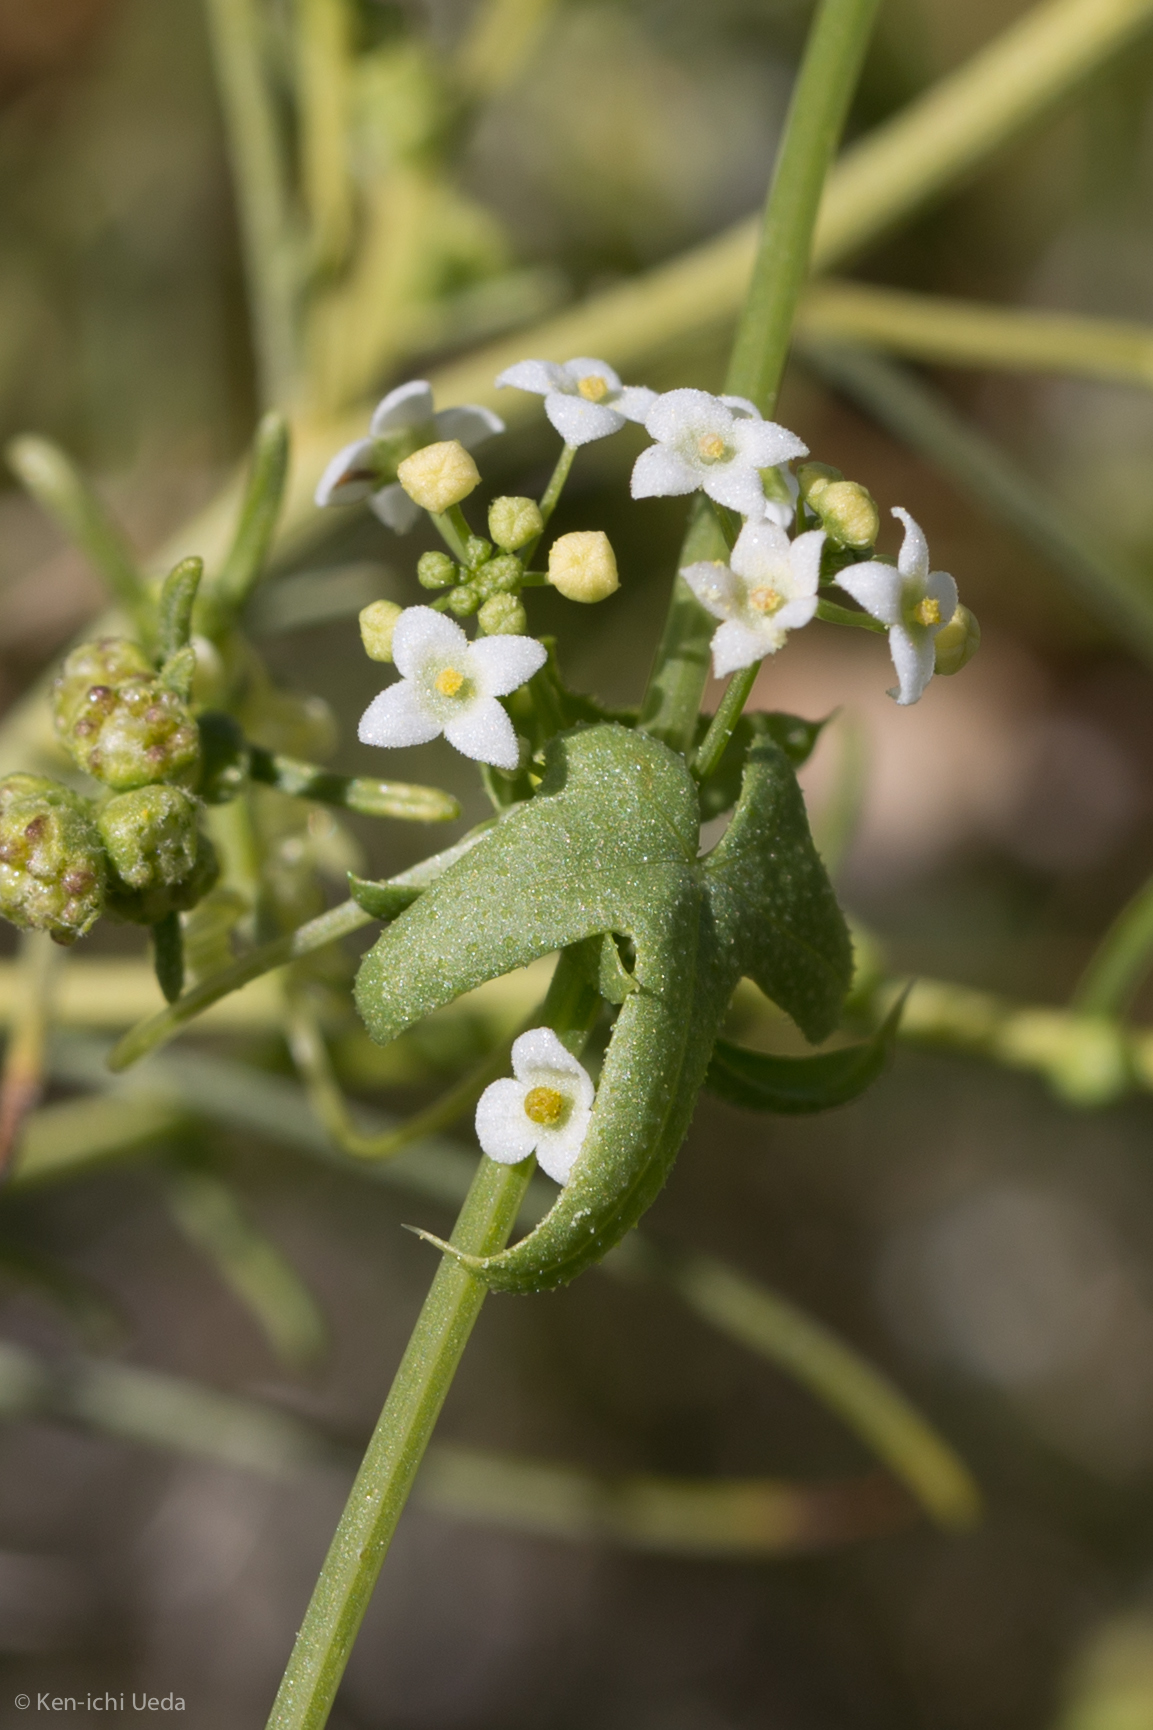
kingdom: Plantae
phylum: Tracheophyta
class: Magnoliopsida
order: Cucurbitales
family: Cucurbitaceae
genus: Echinopepon
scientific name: Echinopepon bigelovii
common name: Desert starvine
